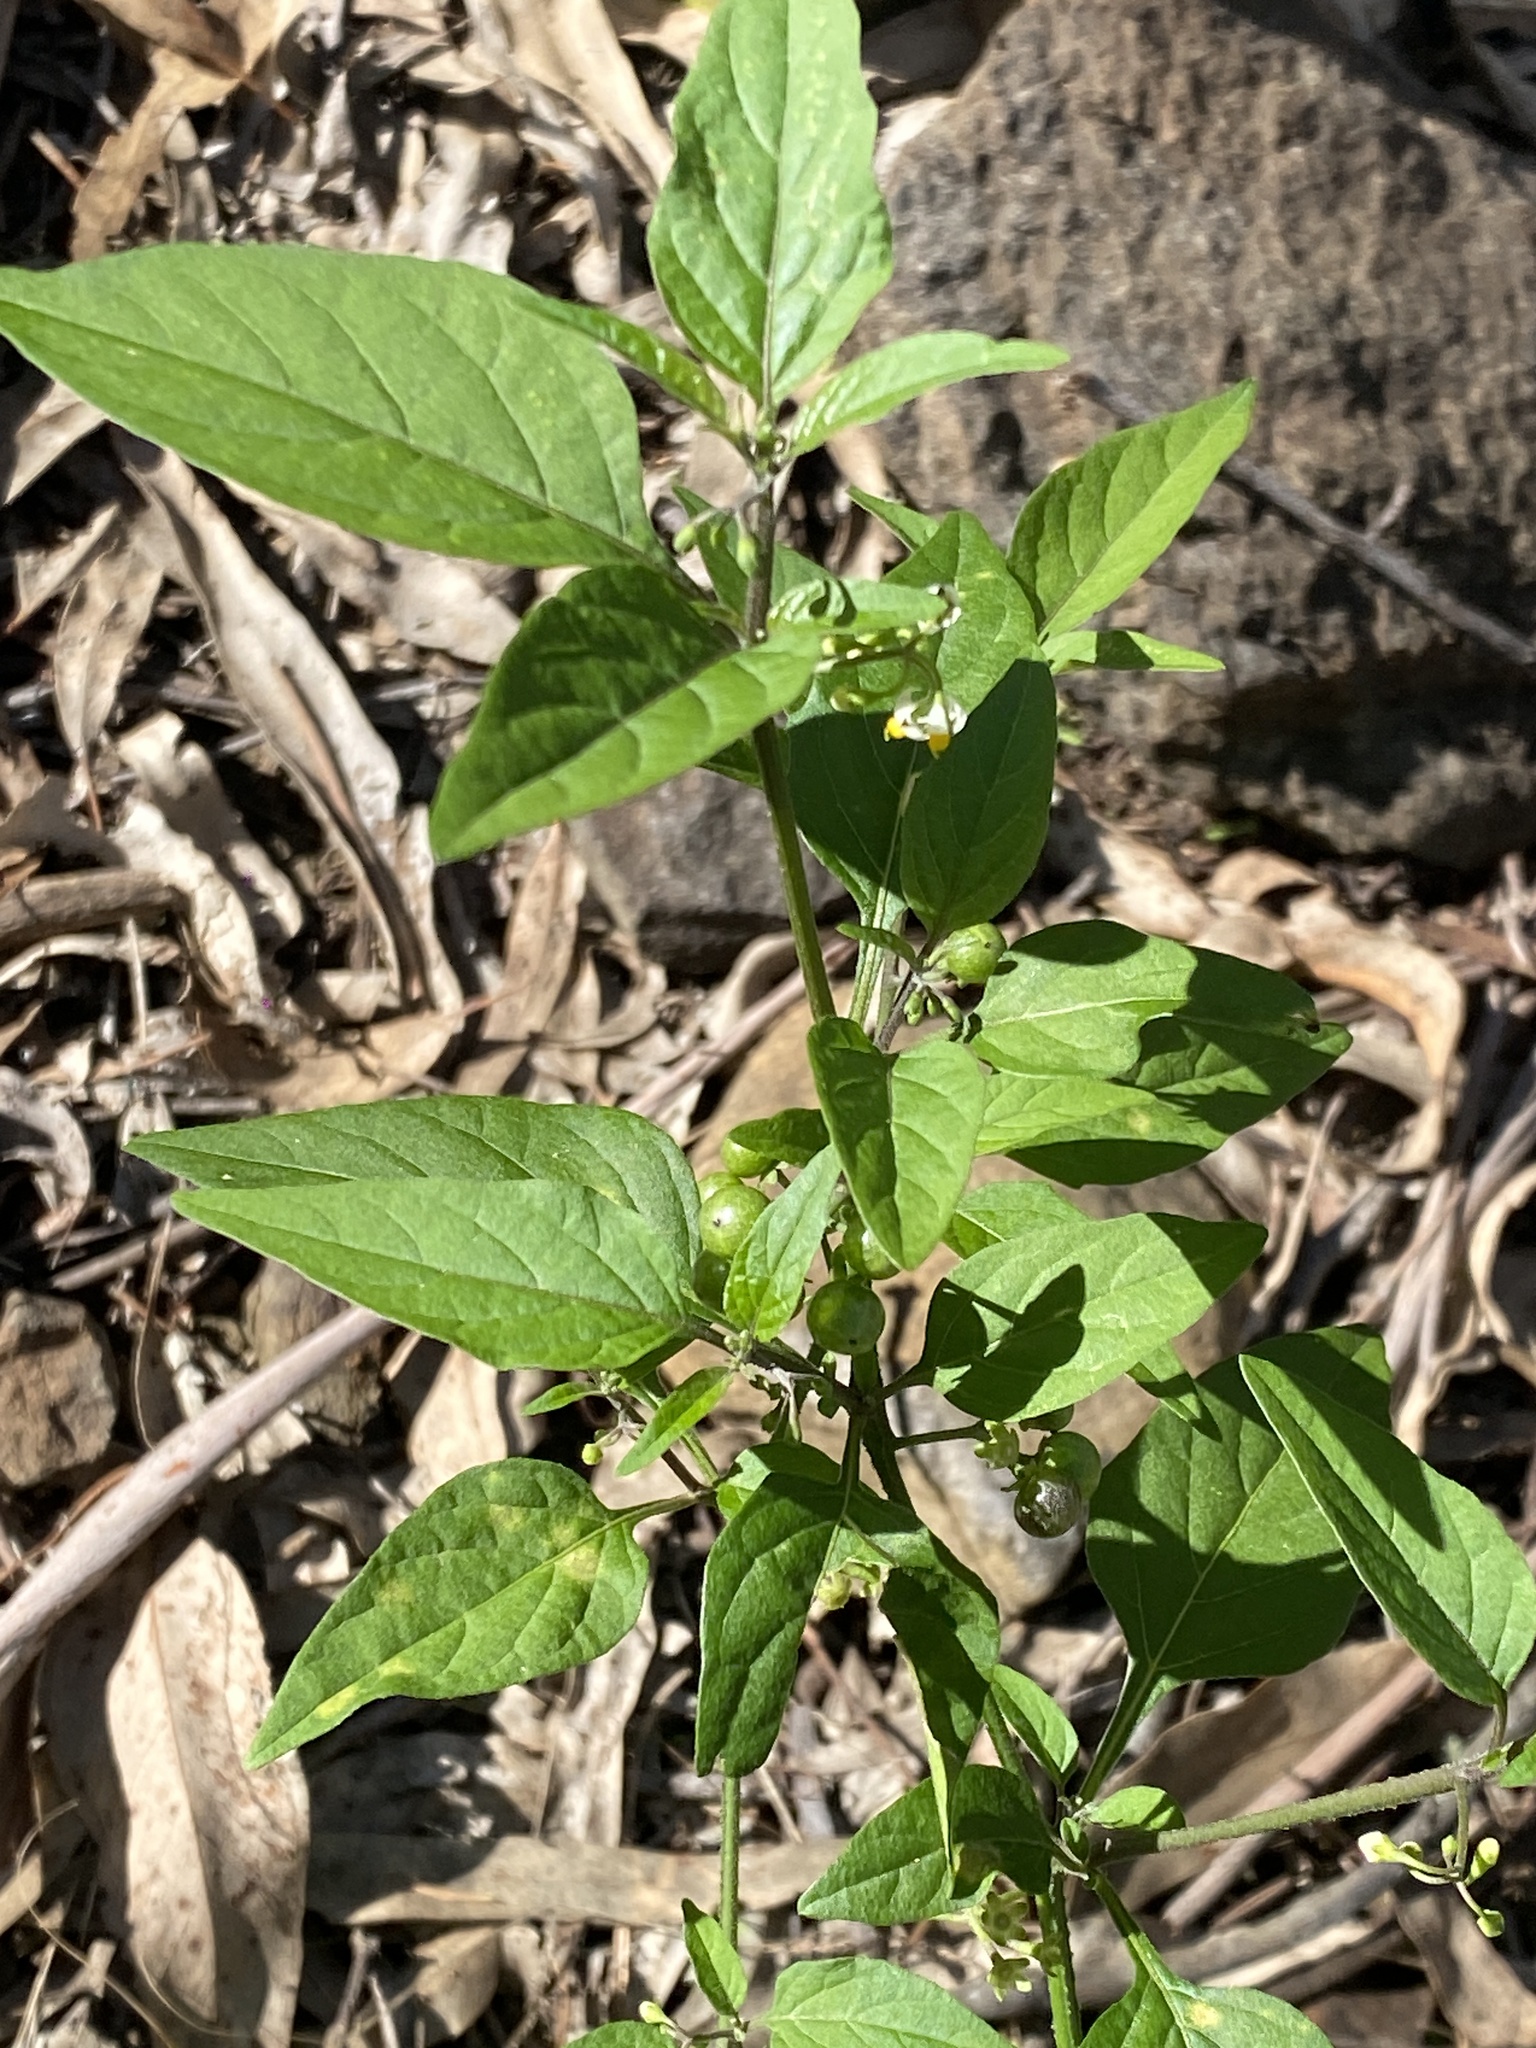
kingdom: Plantae
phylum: Tracheophyta
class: Magnoliopsida
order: Solanales
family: Solanaceae
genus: Solanum
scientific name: Solanum americanum
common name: American black nightshade
